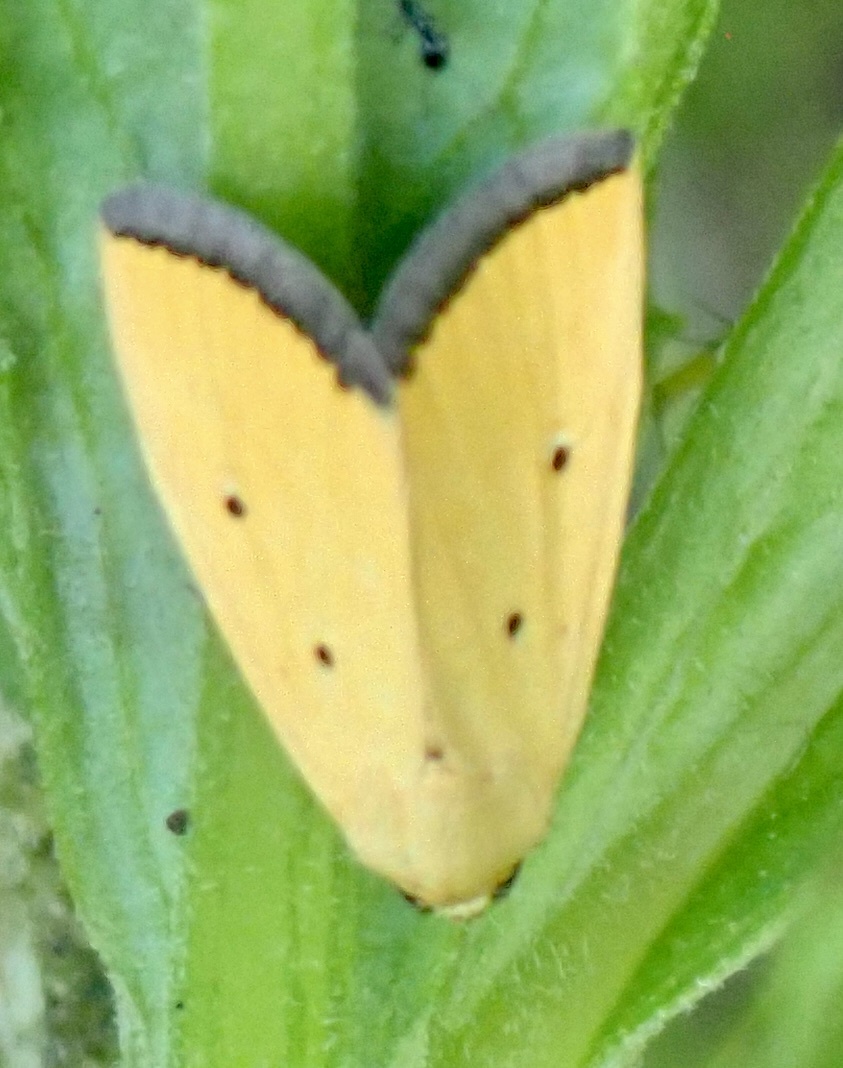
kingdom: Animalia
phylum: Arthropoda
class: Insecta
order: Lepidoptera
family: Noctuidae
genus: Marimatha
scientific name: Marimatha nigrofimbria
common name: Black-bordered lemon moth
